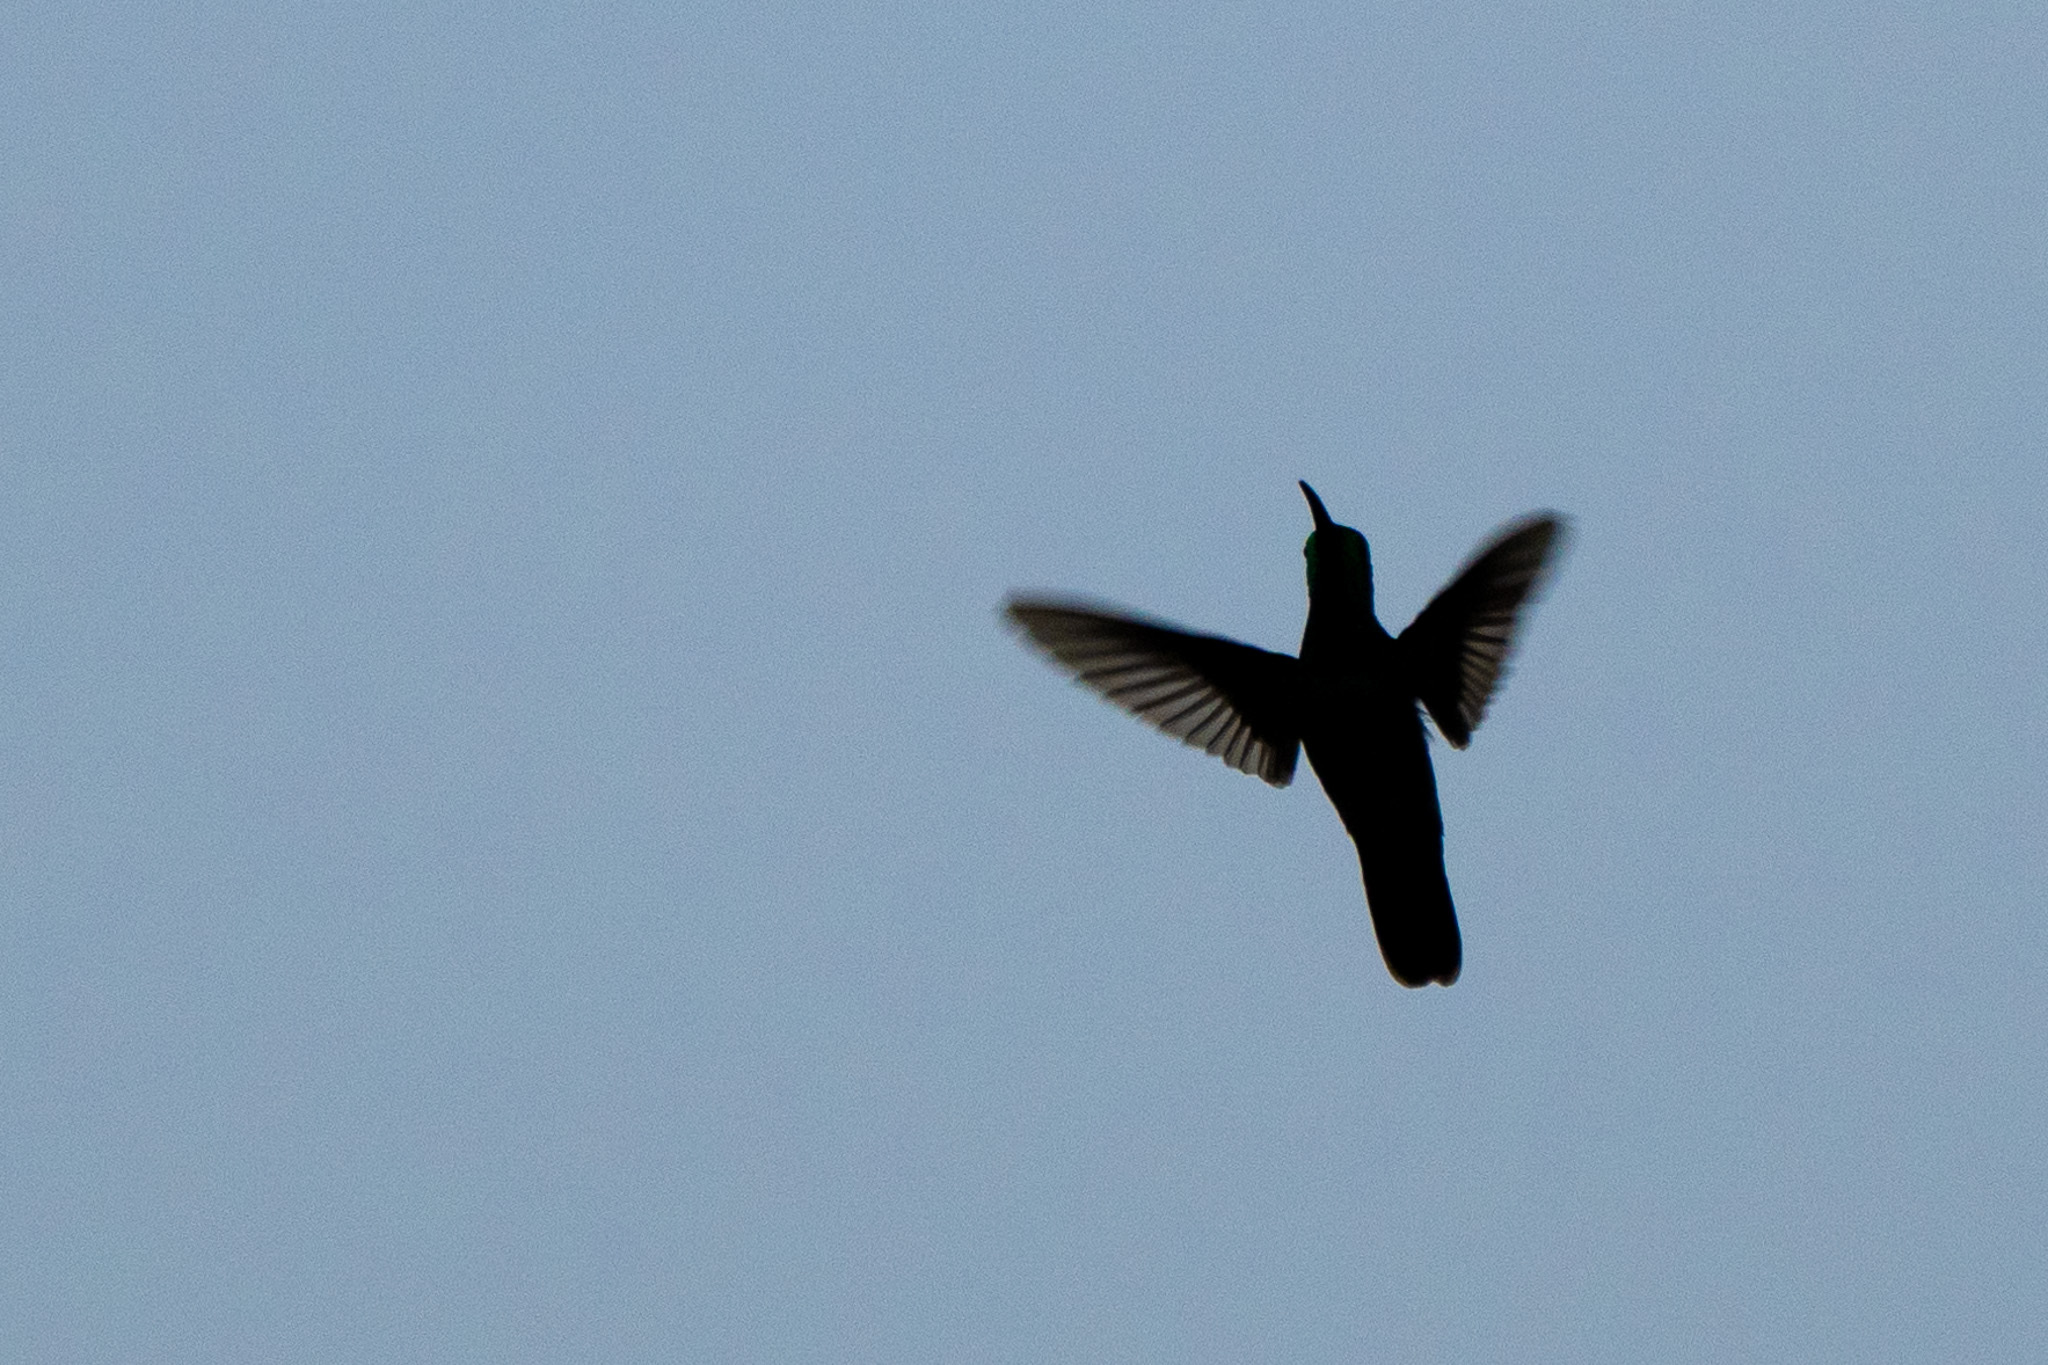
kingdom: Animalia
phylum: Chordata
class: Aves
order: Apodiformes
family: Trochilidae
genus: Anthracothorax
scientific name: Anthracothorax prevostii
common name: Green-breasted mango
